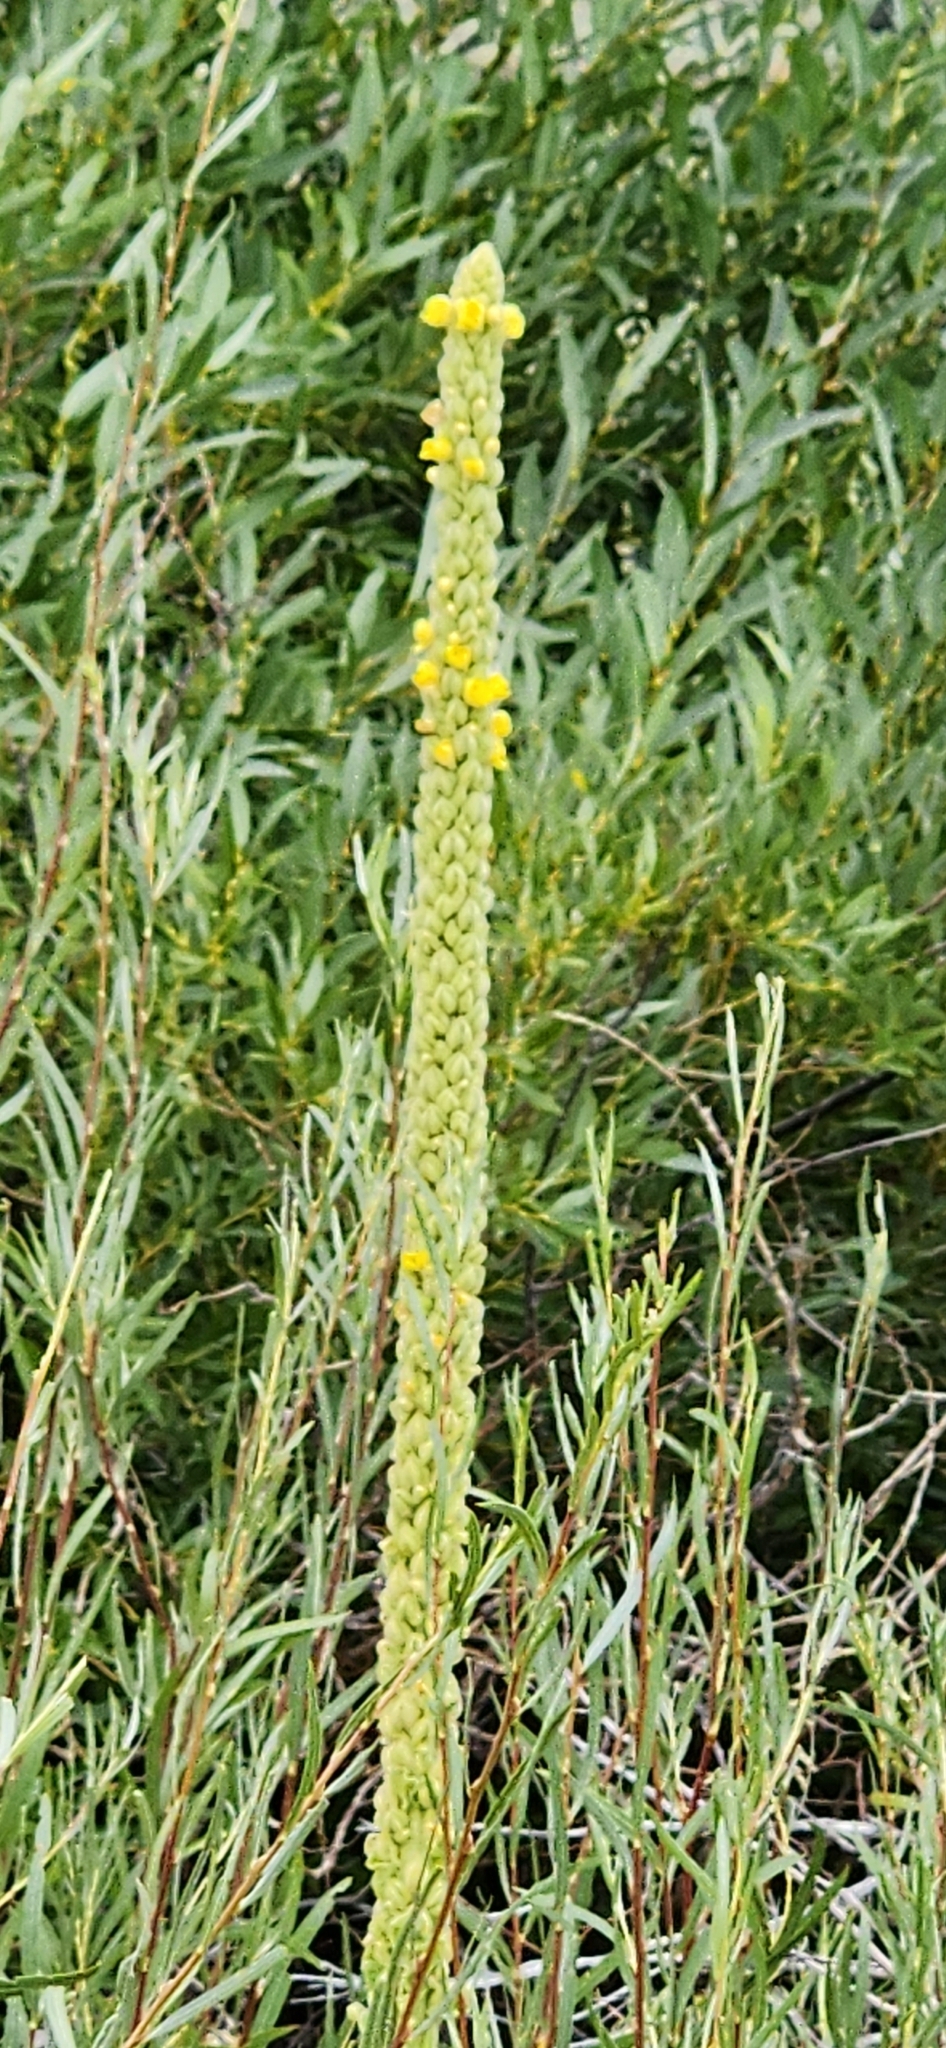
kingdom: Plantae
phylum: Tracheophyta
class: Magnoliopsida
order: Lamiales
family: Scrophulariaceae
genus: Verbascum
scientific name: Verbascum thapsus
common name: Common mullein
